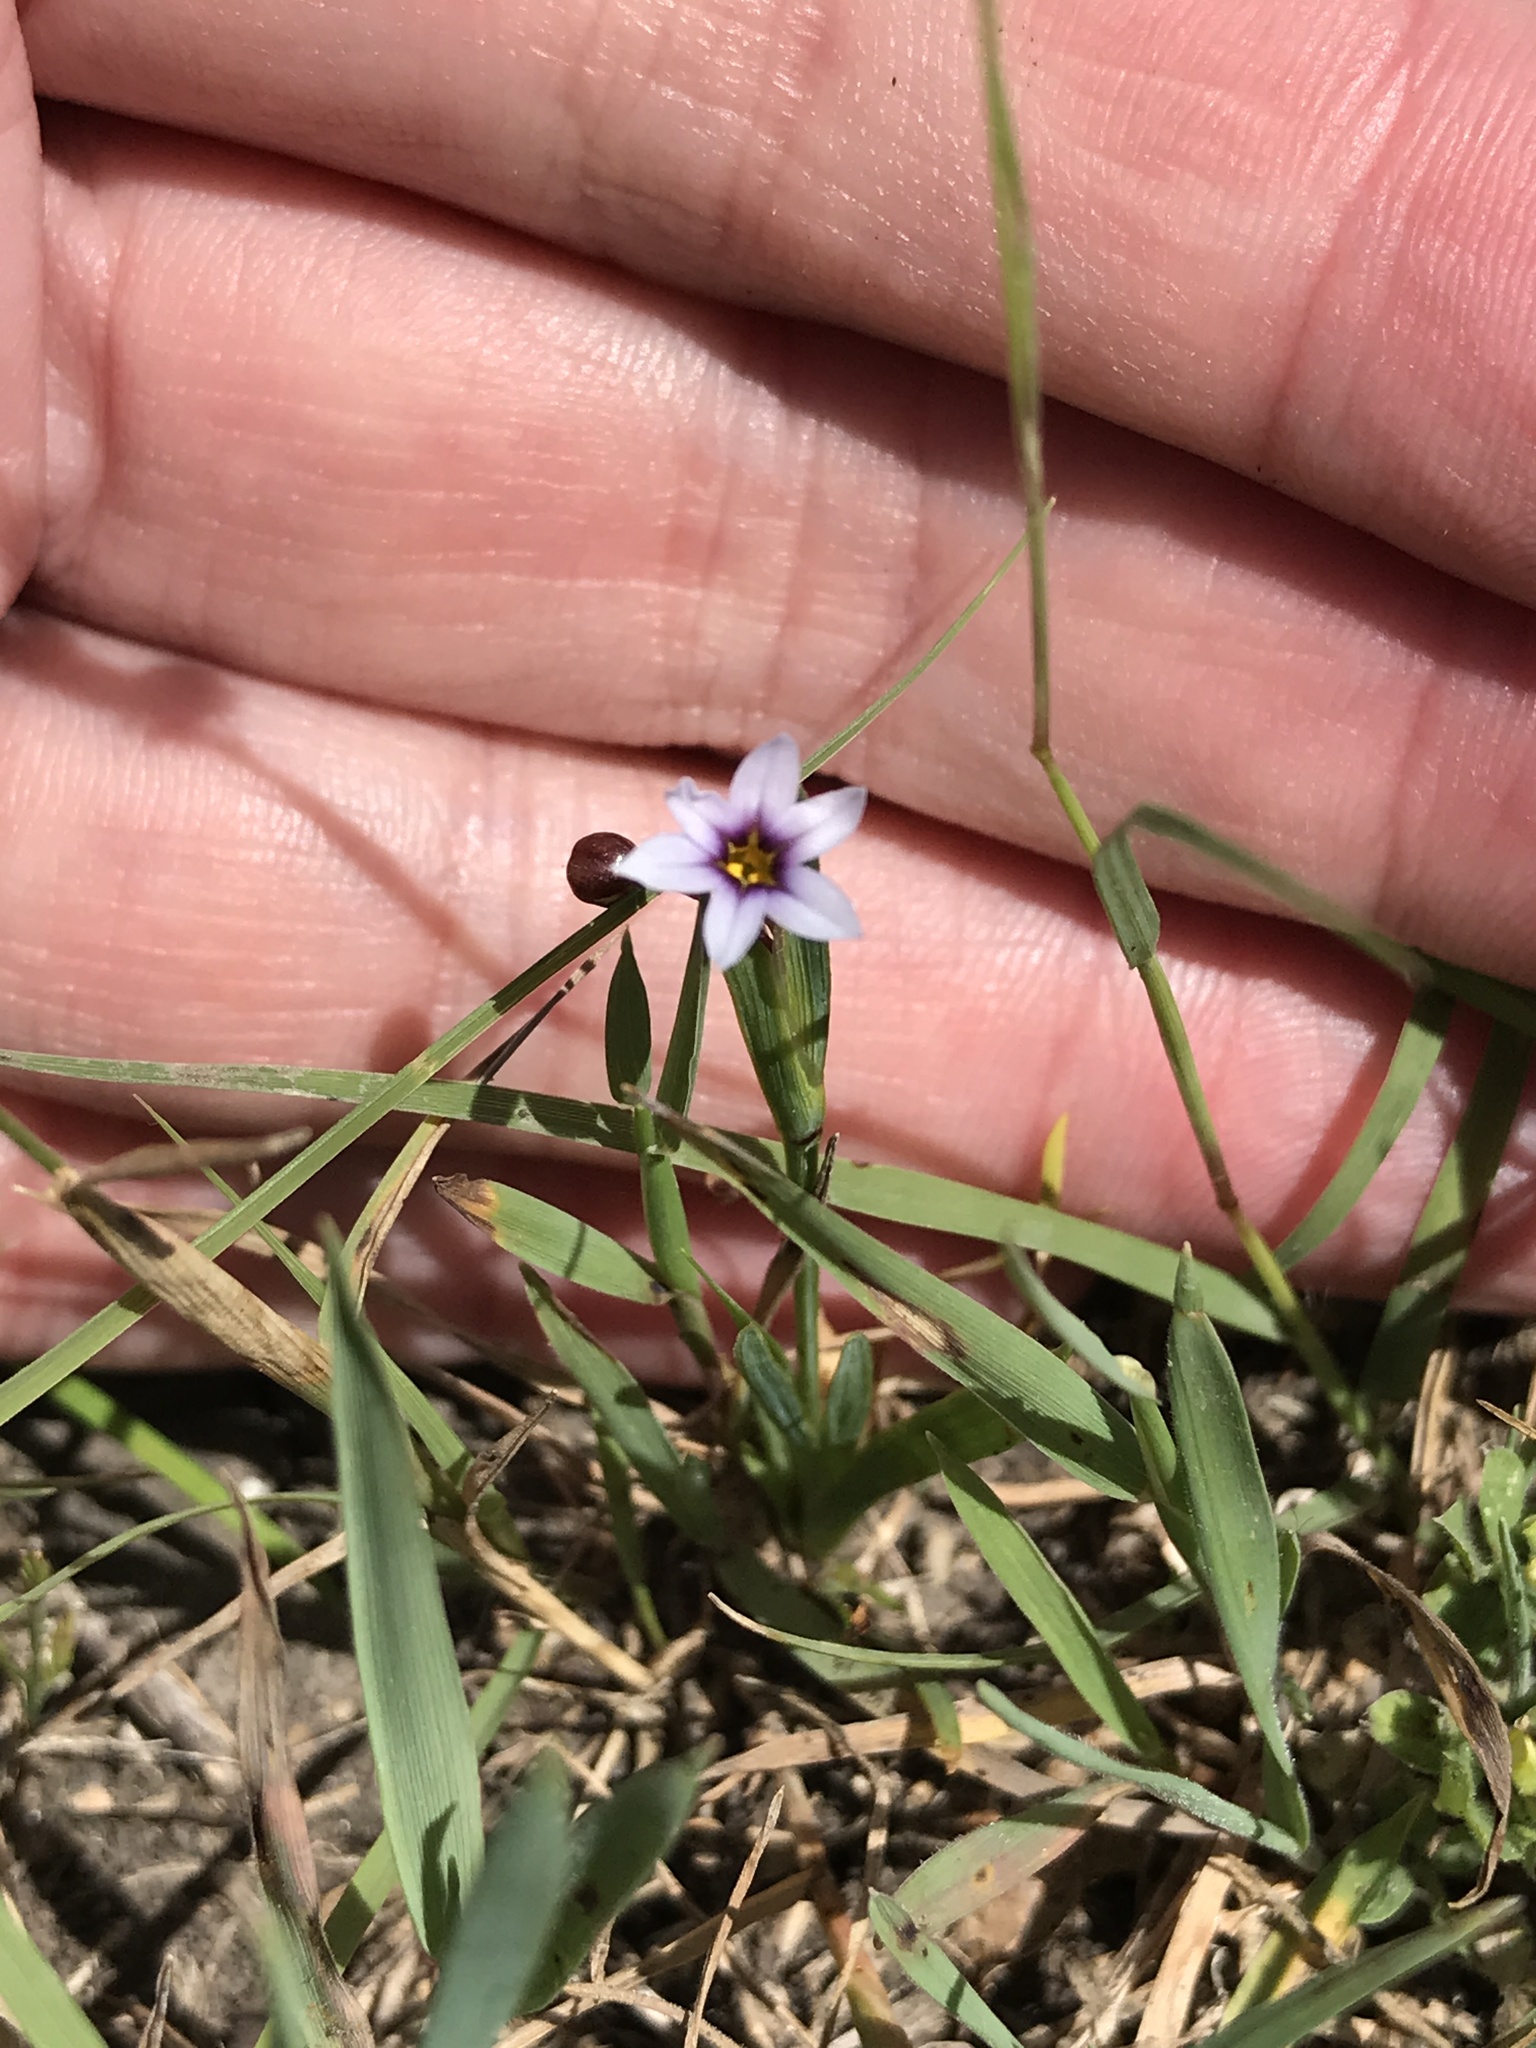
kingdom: Plantae
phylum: Tracheophyta
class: Liliopsida
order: Asparagales
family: Iridaceae
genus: Sisyrinchium
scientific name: Sisyrinchium micranthum
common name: Bermuda pigroot
